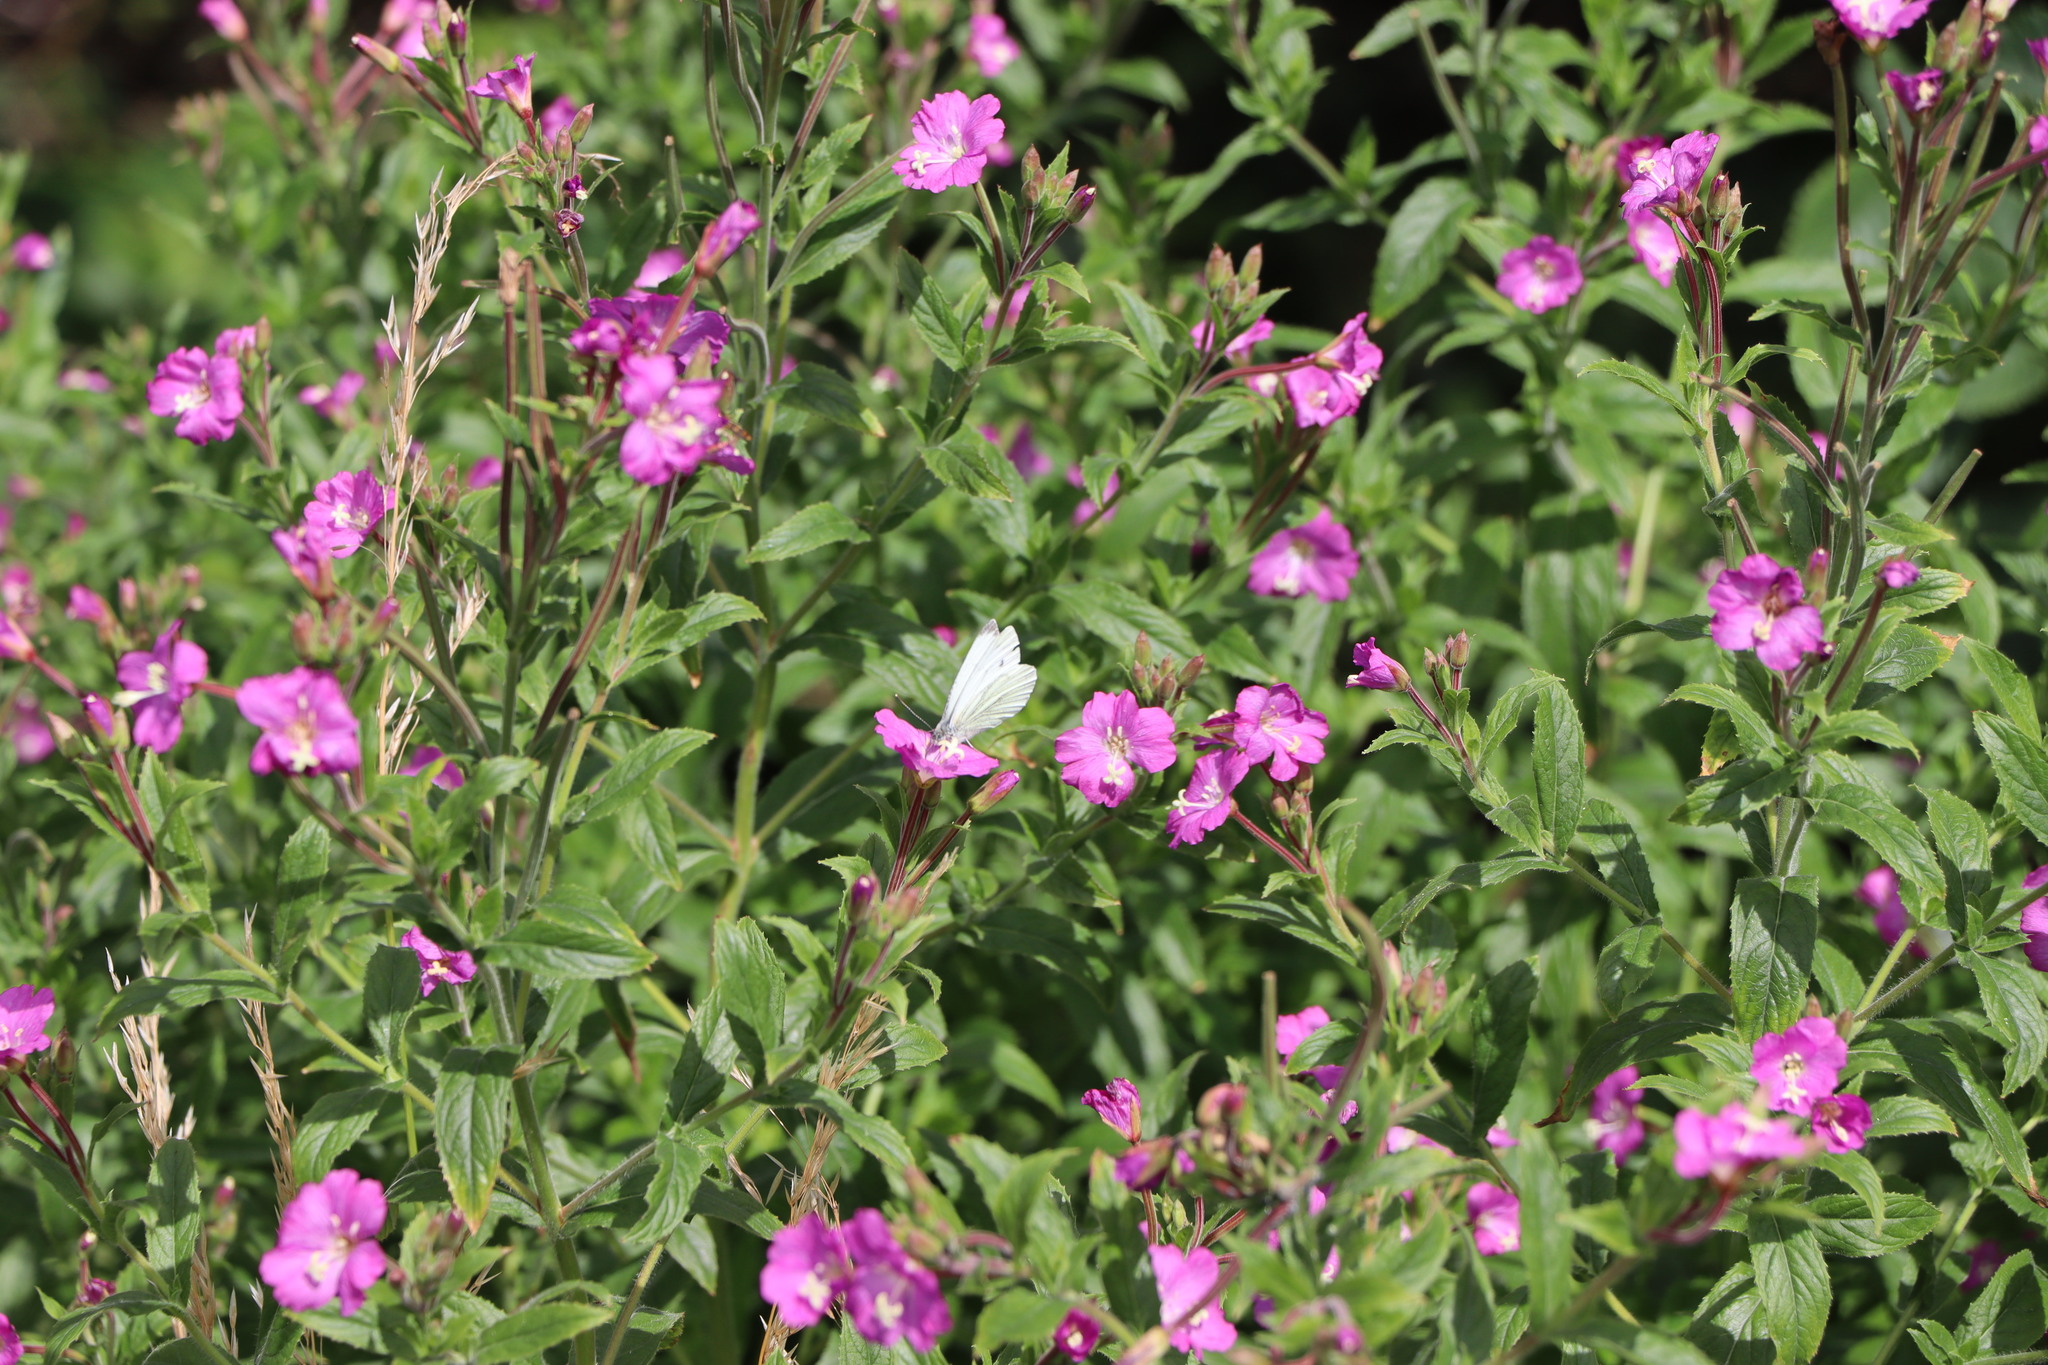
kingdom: Animalia
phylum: Arthropoda
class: Insecta
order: Lepidoptera
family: Pieridae
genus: Pieris
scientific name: Pieris rapae
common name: Small white
